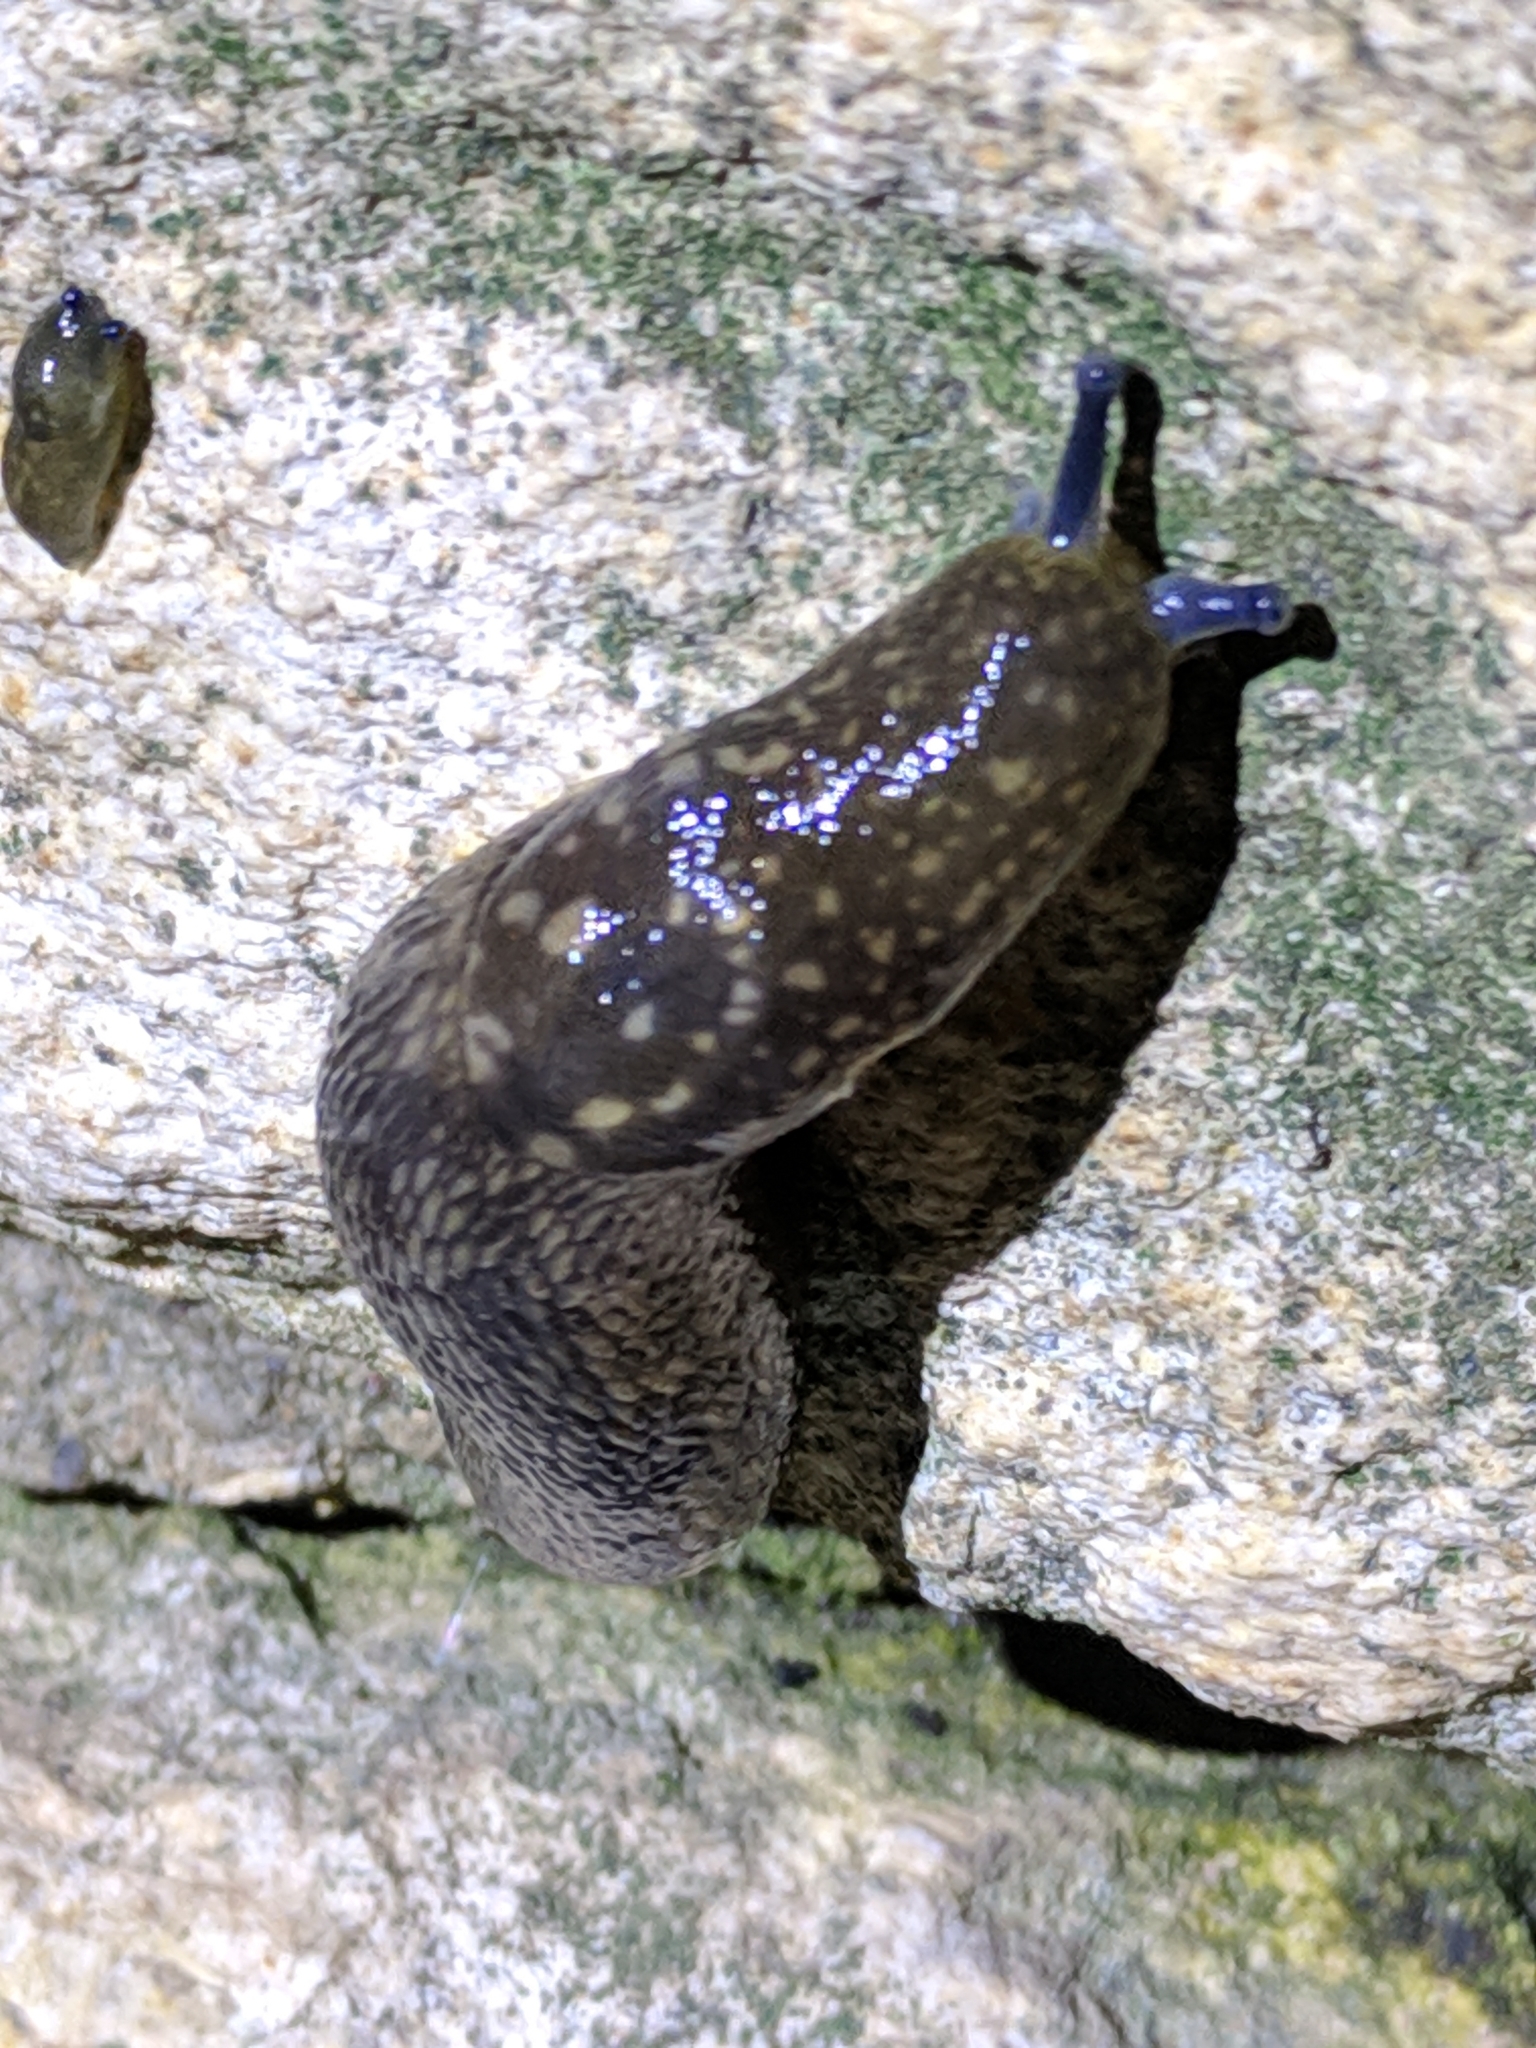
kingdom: Animalia
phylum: Mollusca
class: Gastropoda
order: Stylommatophora
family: Limacidae
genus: Limacus
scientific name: Limacus flavus
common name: Yellow gardenslug
